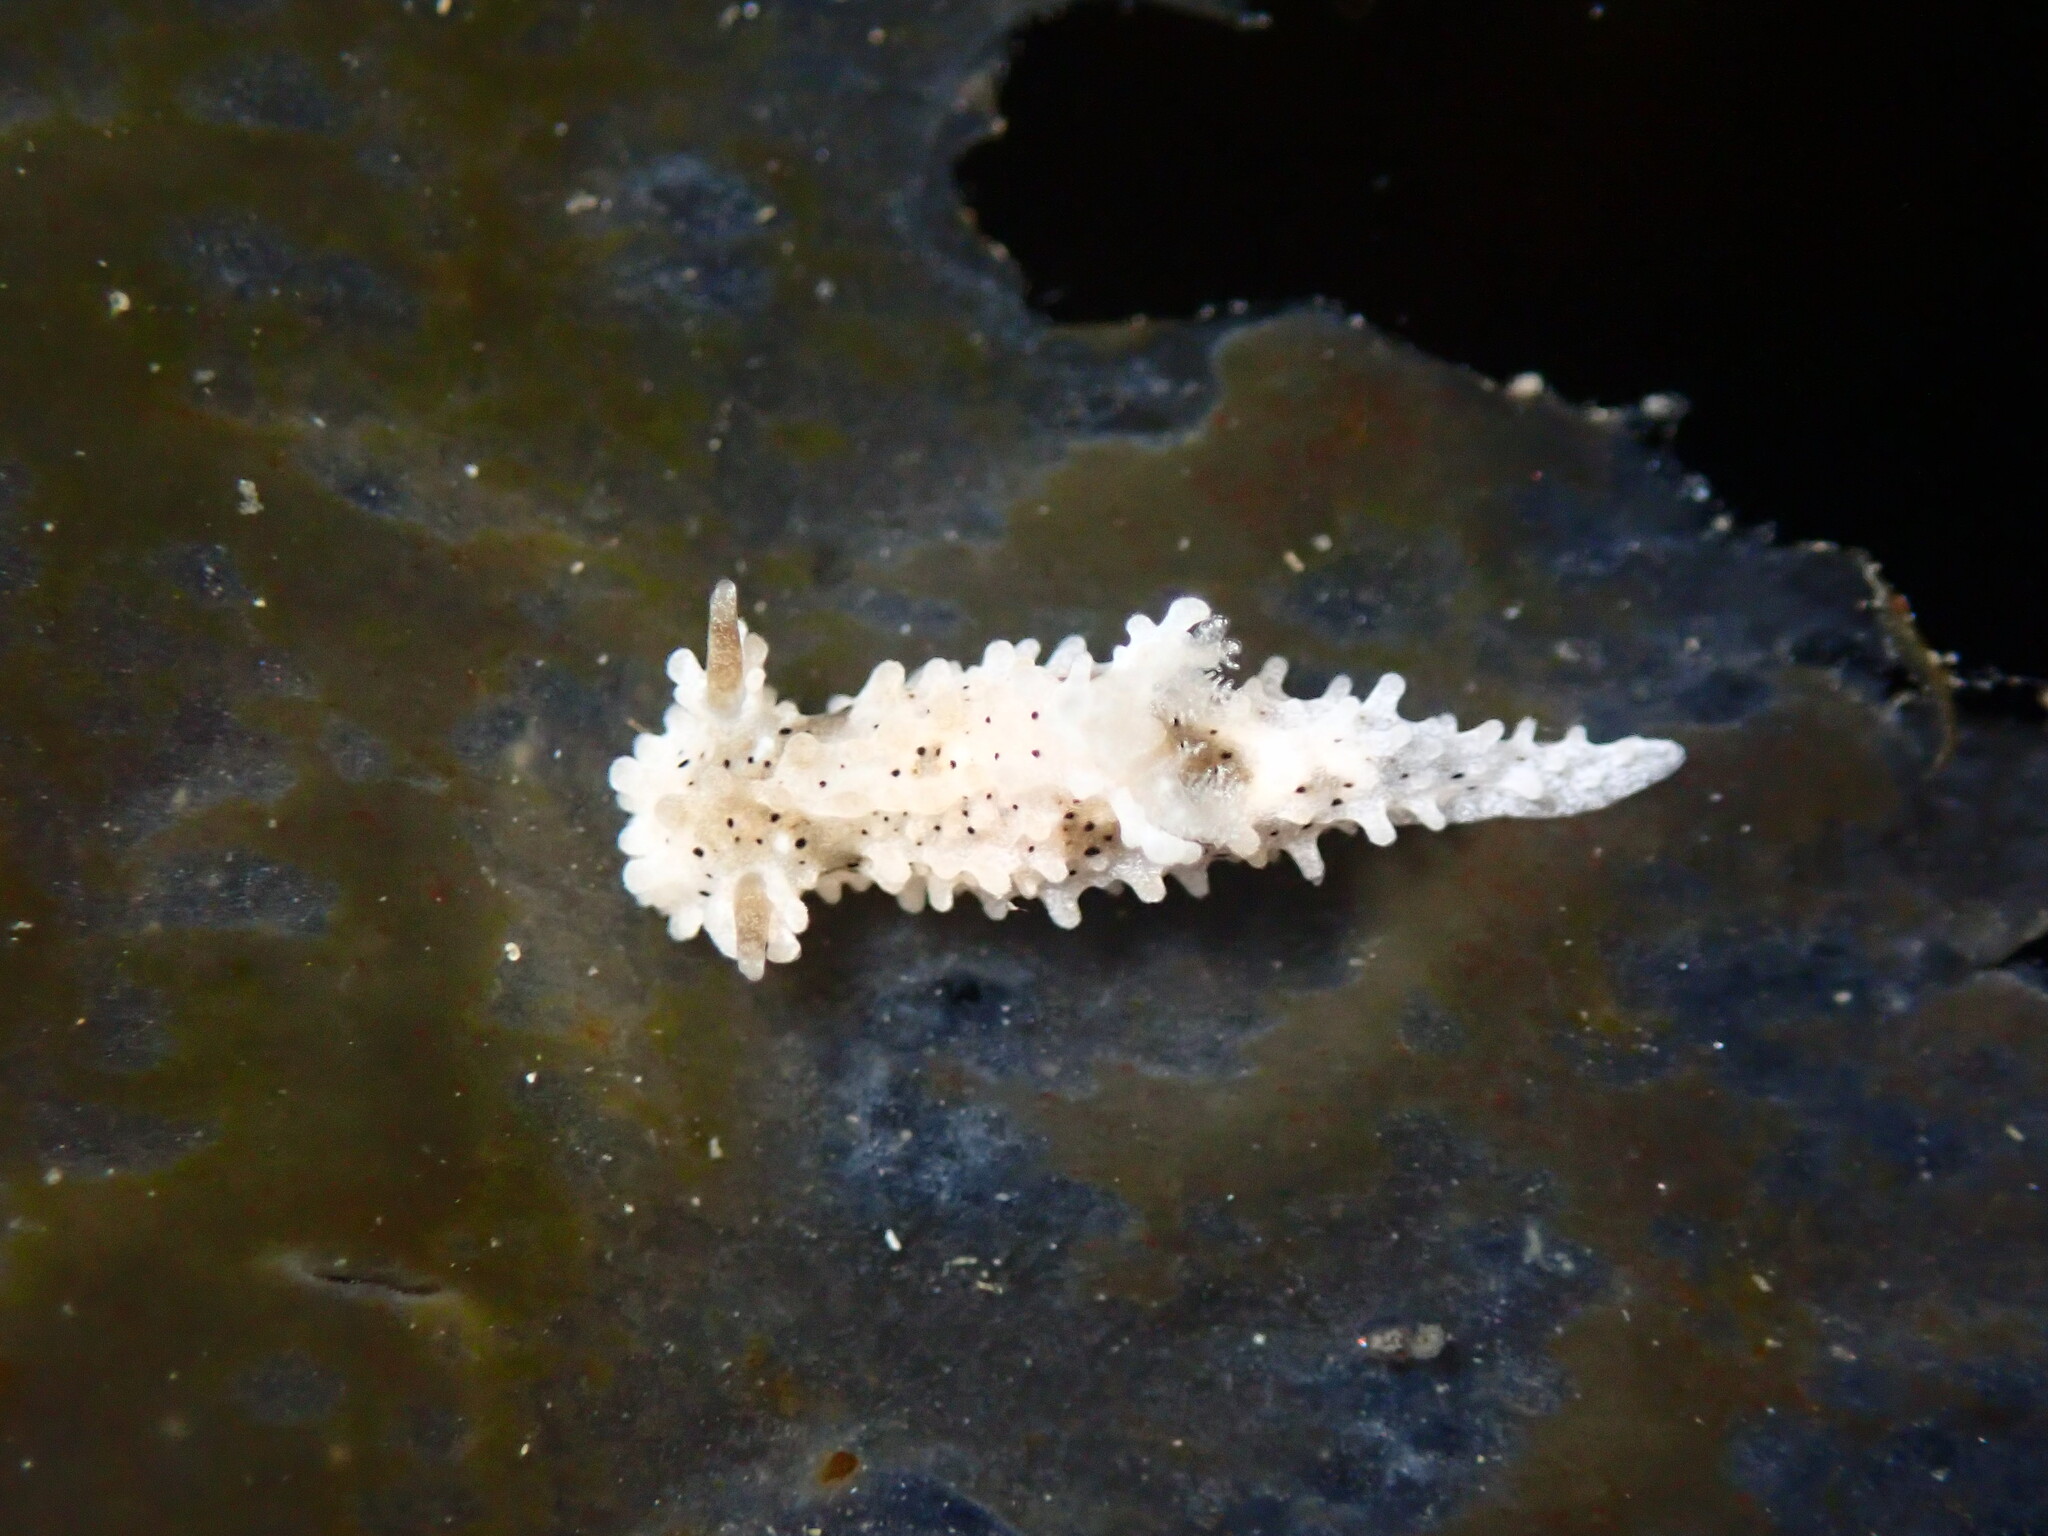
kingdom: Animalia
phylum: Mollusca
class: Gastropoda
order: Nudibranchia
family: Aegiridae
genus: Aegires
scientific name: Aegires albopunctatus
